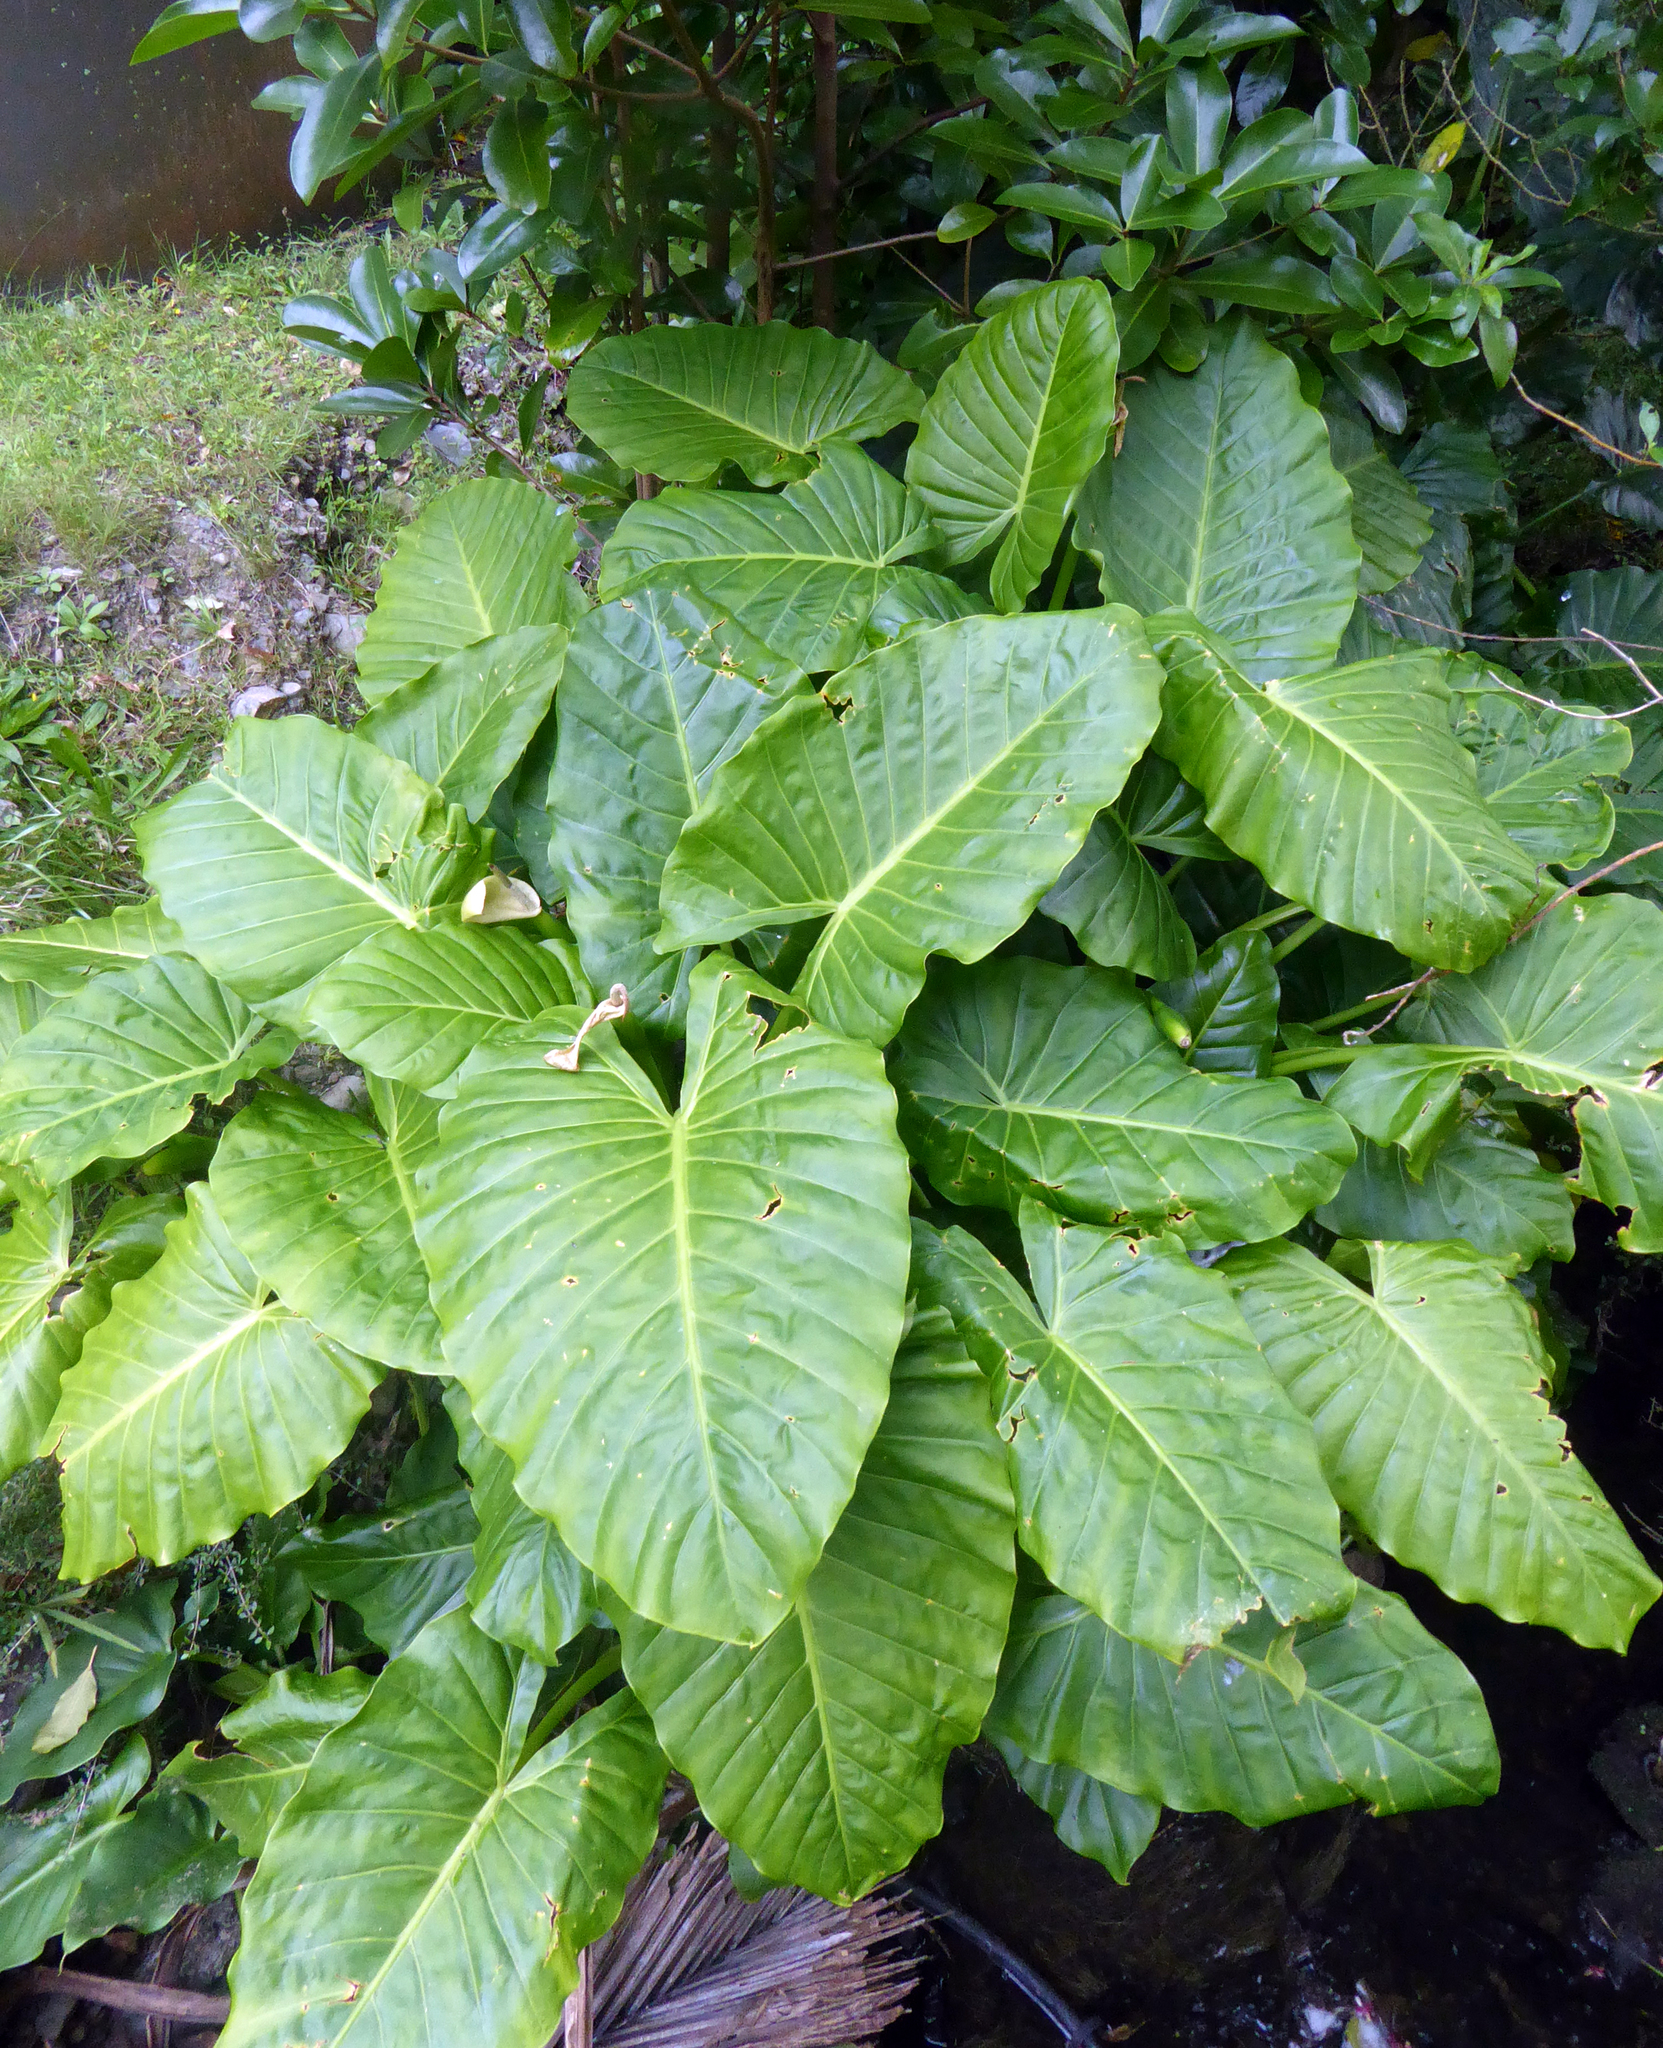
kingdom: Plantae
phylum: Tracheophyta
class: Liliopsida
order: Alismatales
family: Araceae
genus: Alocasia
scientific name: Alocasia brisbanensis
